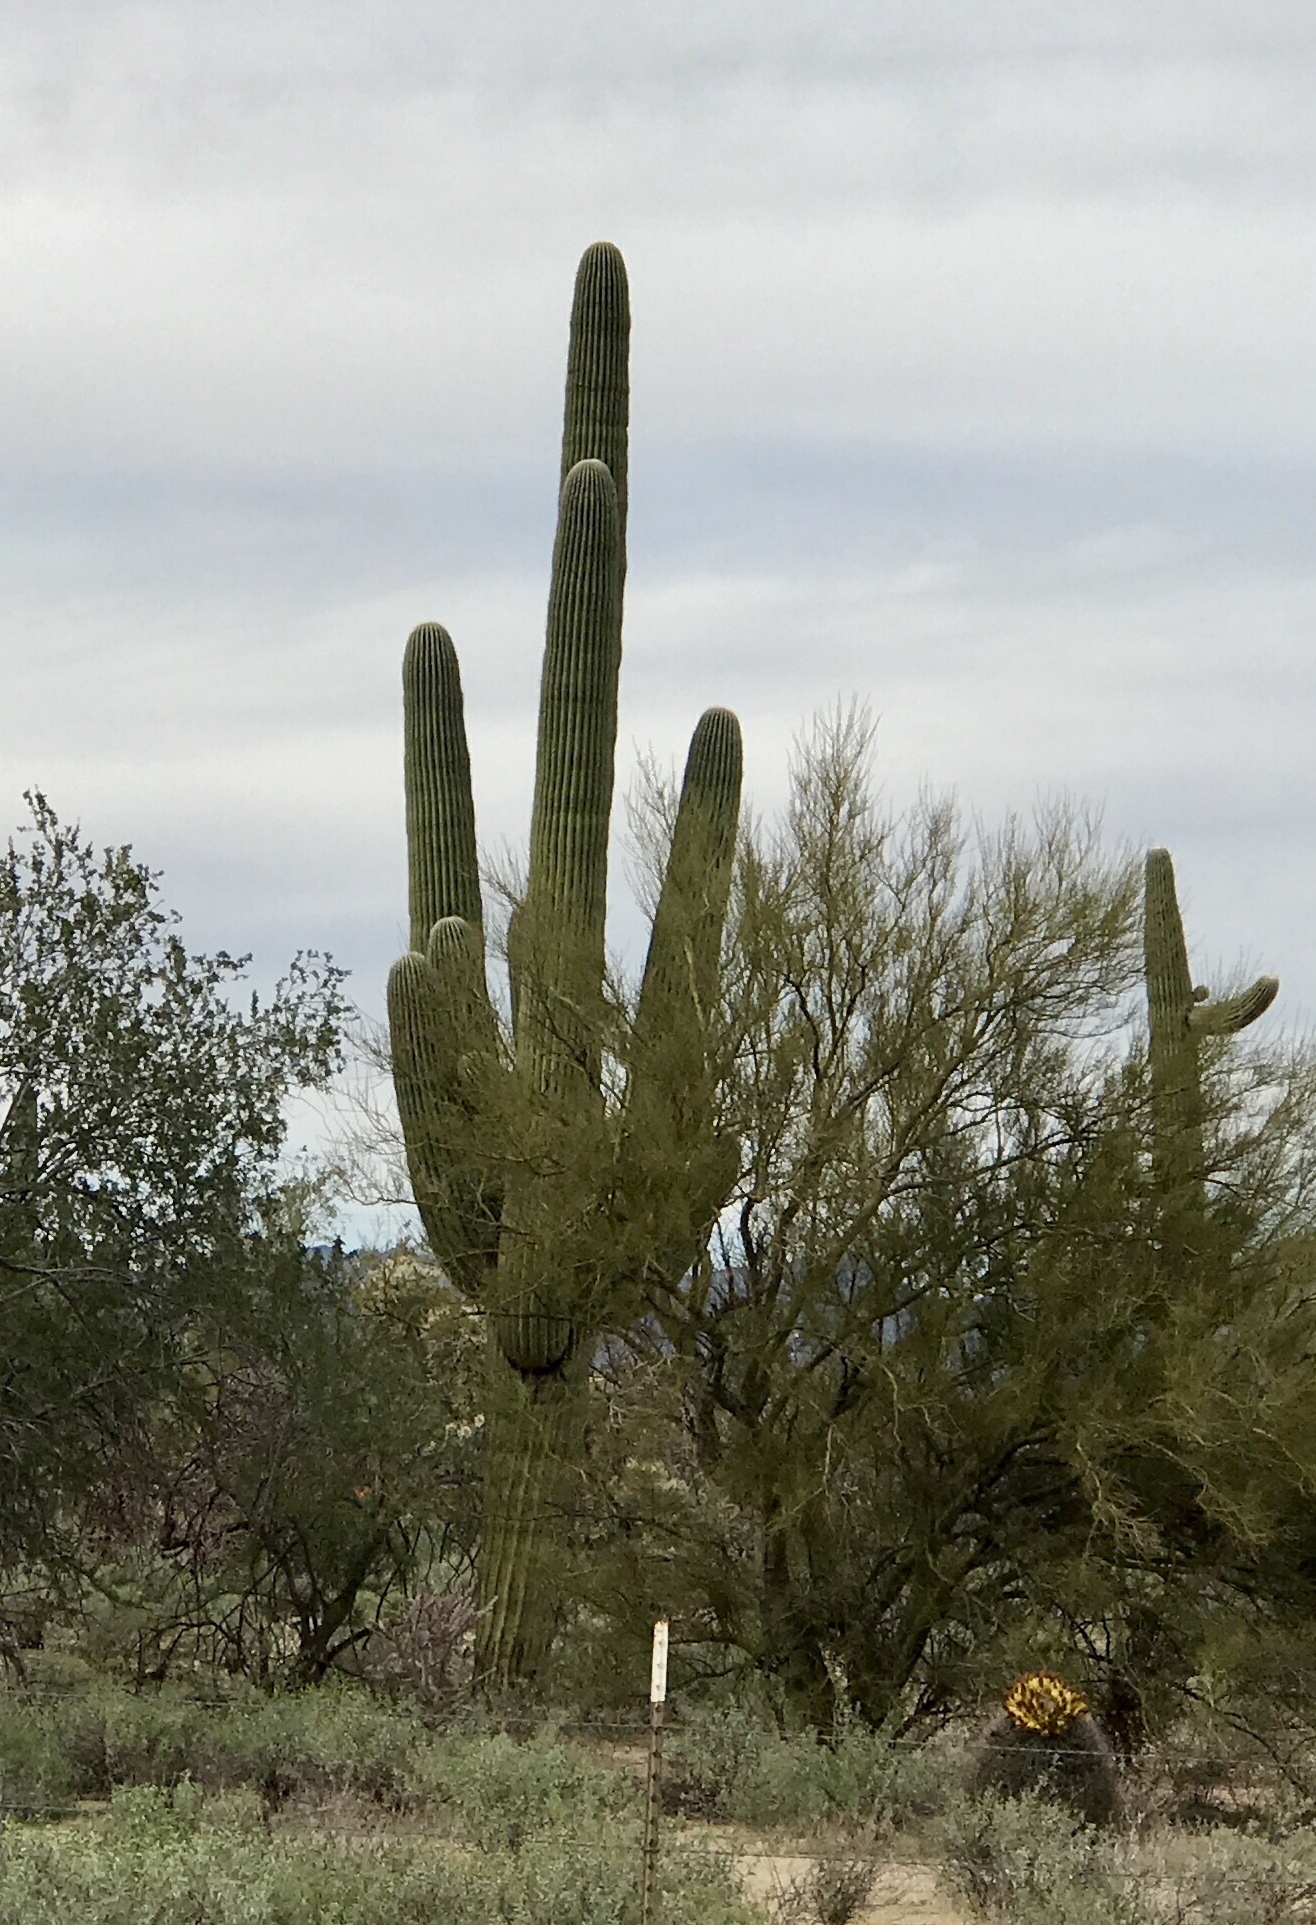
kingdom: Plantae
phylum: Tracheophyta
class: Magnoliopsida
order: Caryophyllales
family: Cactaceae
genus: Carnegiea
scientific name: Carnegiea gigantea
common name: Saguaro
